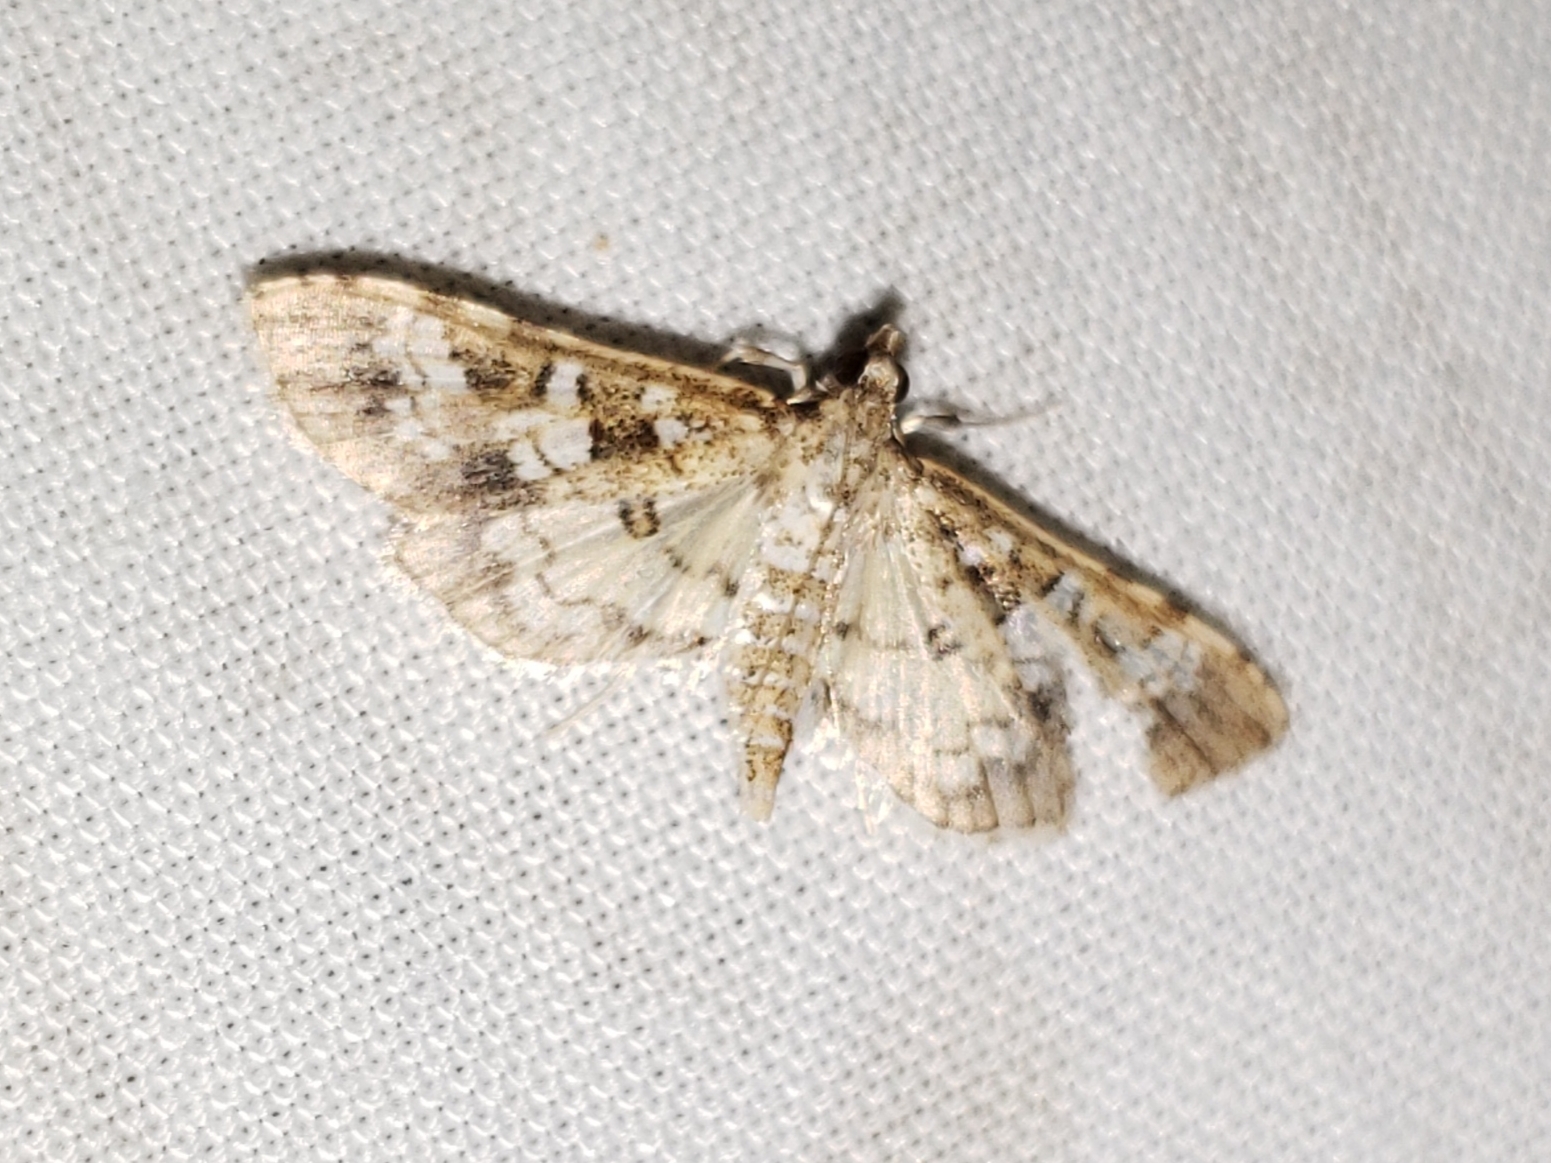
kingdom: Animalia
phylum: Arthropoda
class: Insecta
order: Lepidoptera
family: Crambidae
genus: Samea
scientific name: Samea multiplicalis
